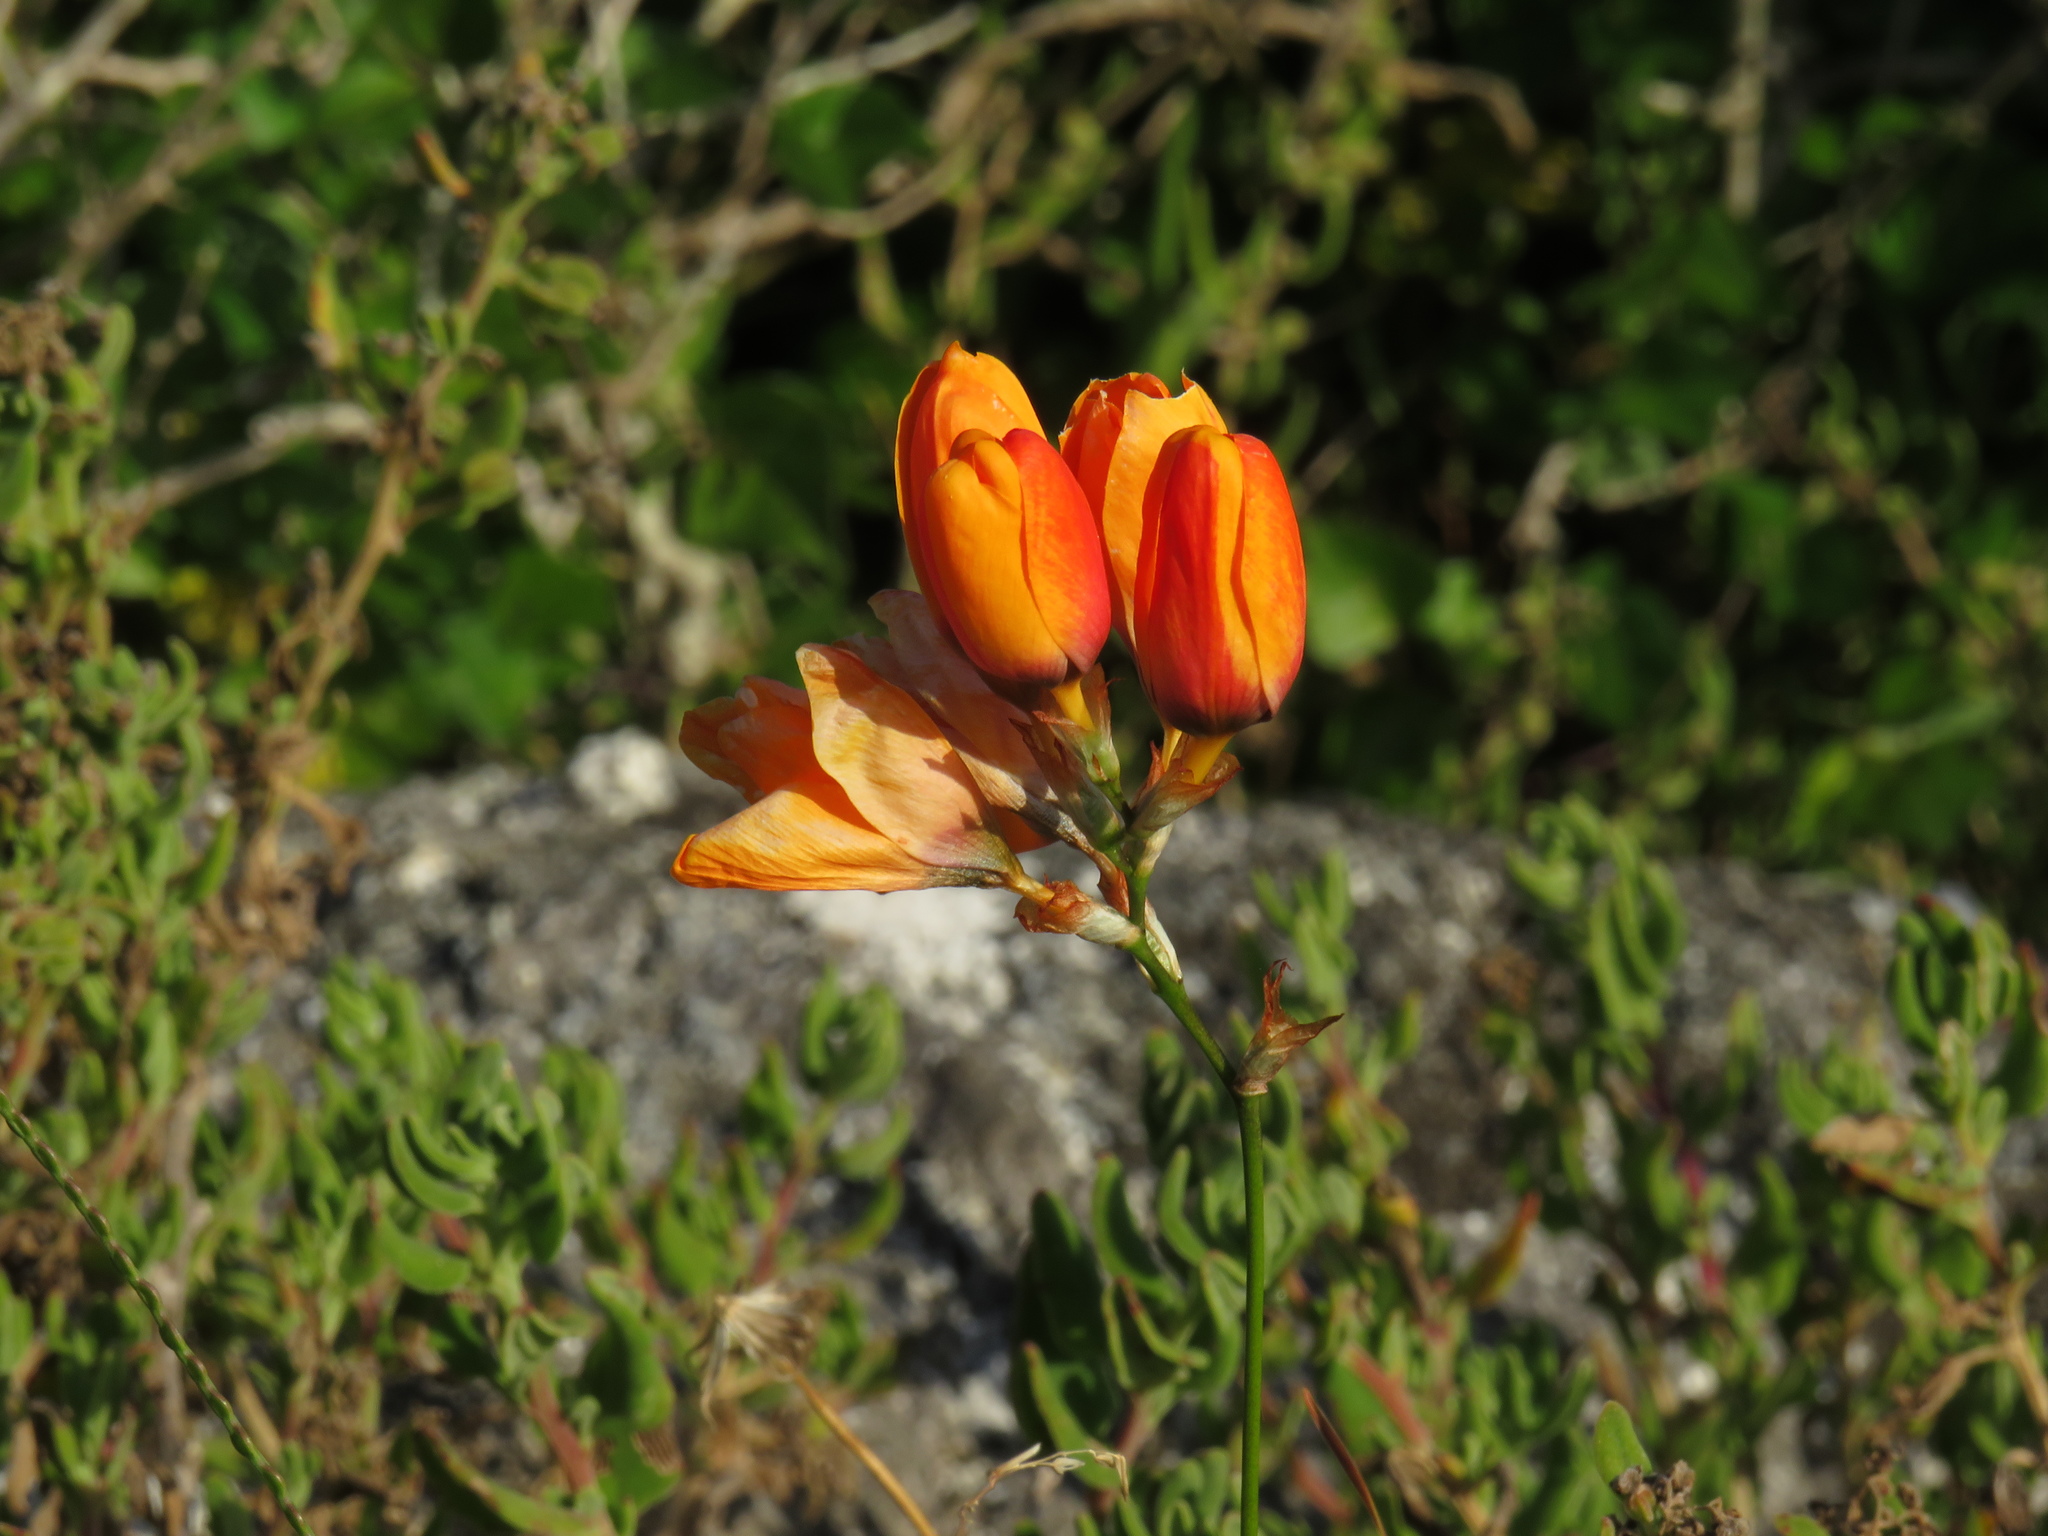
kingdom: Plantae
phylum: Tracheophyta
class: Liliopsida
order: Asparagales
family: Iridaceae
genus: Ixia
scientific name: Ixia calendulacea
